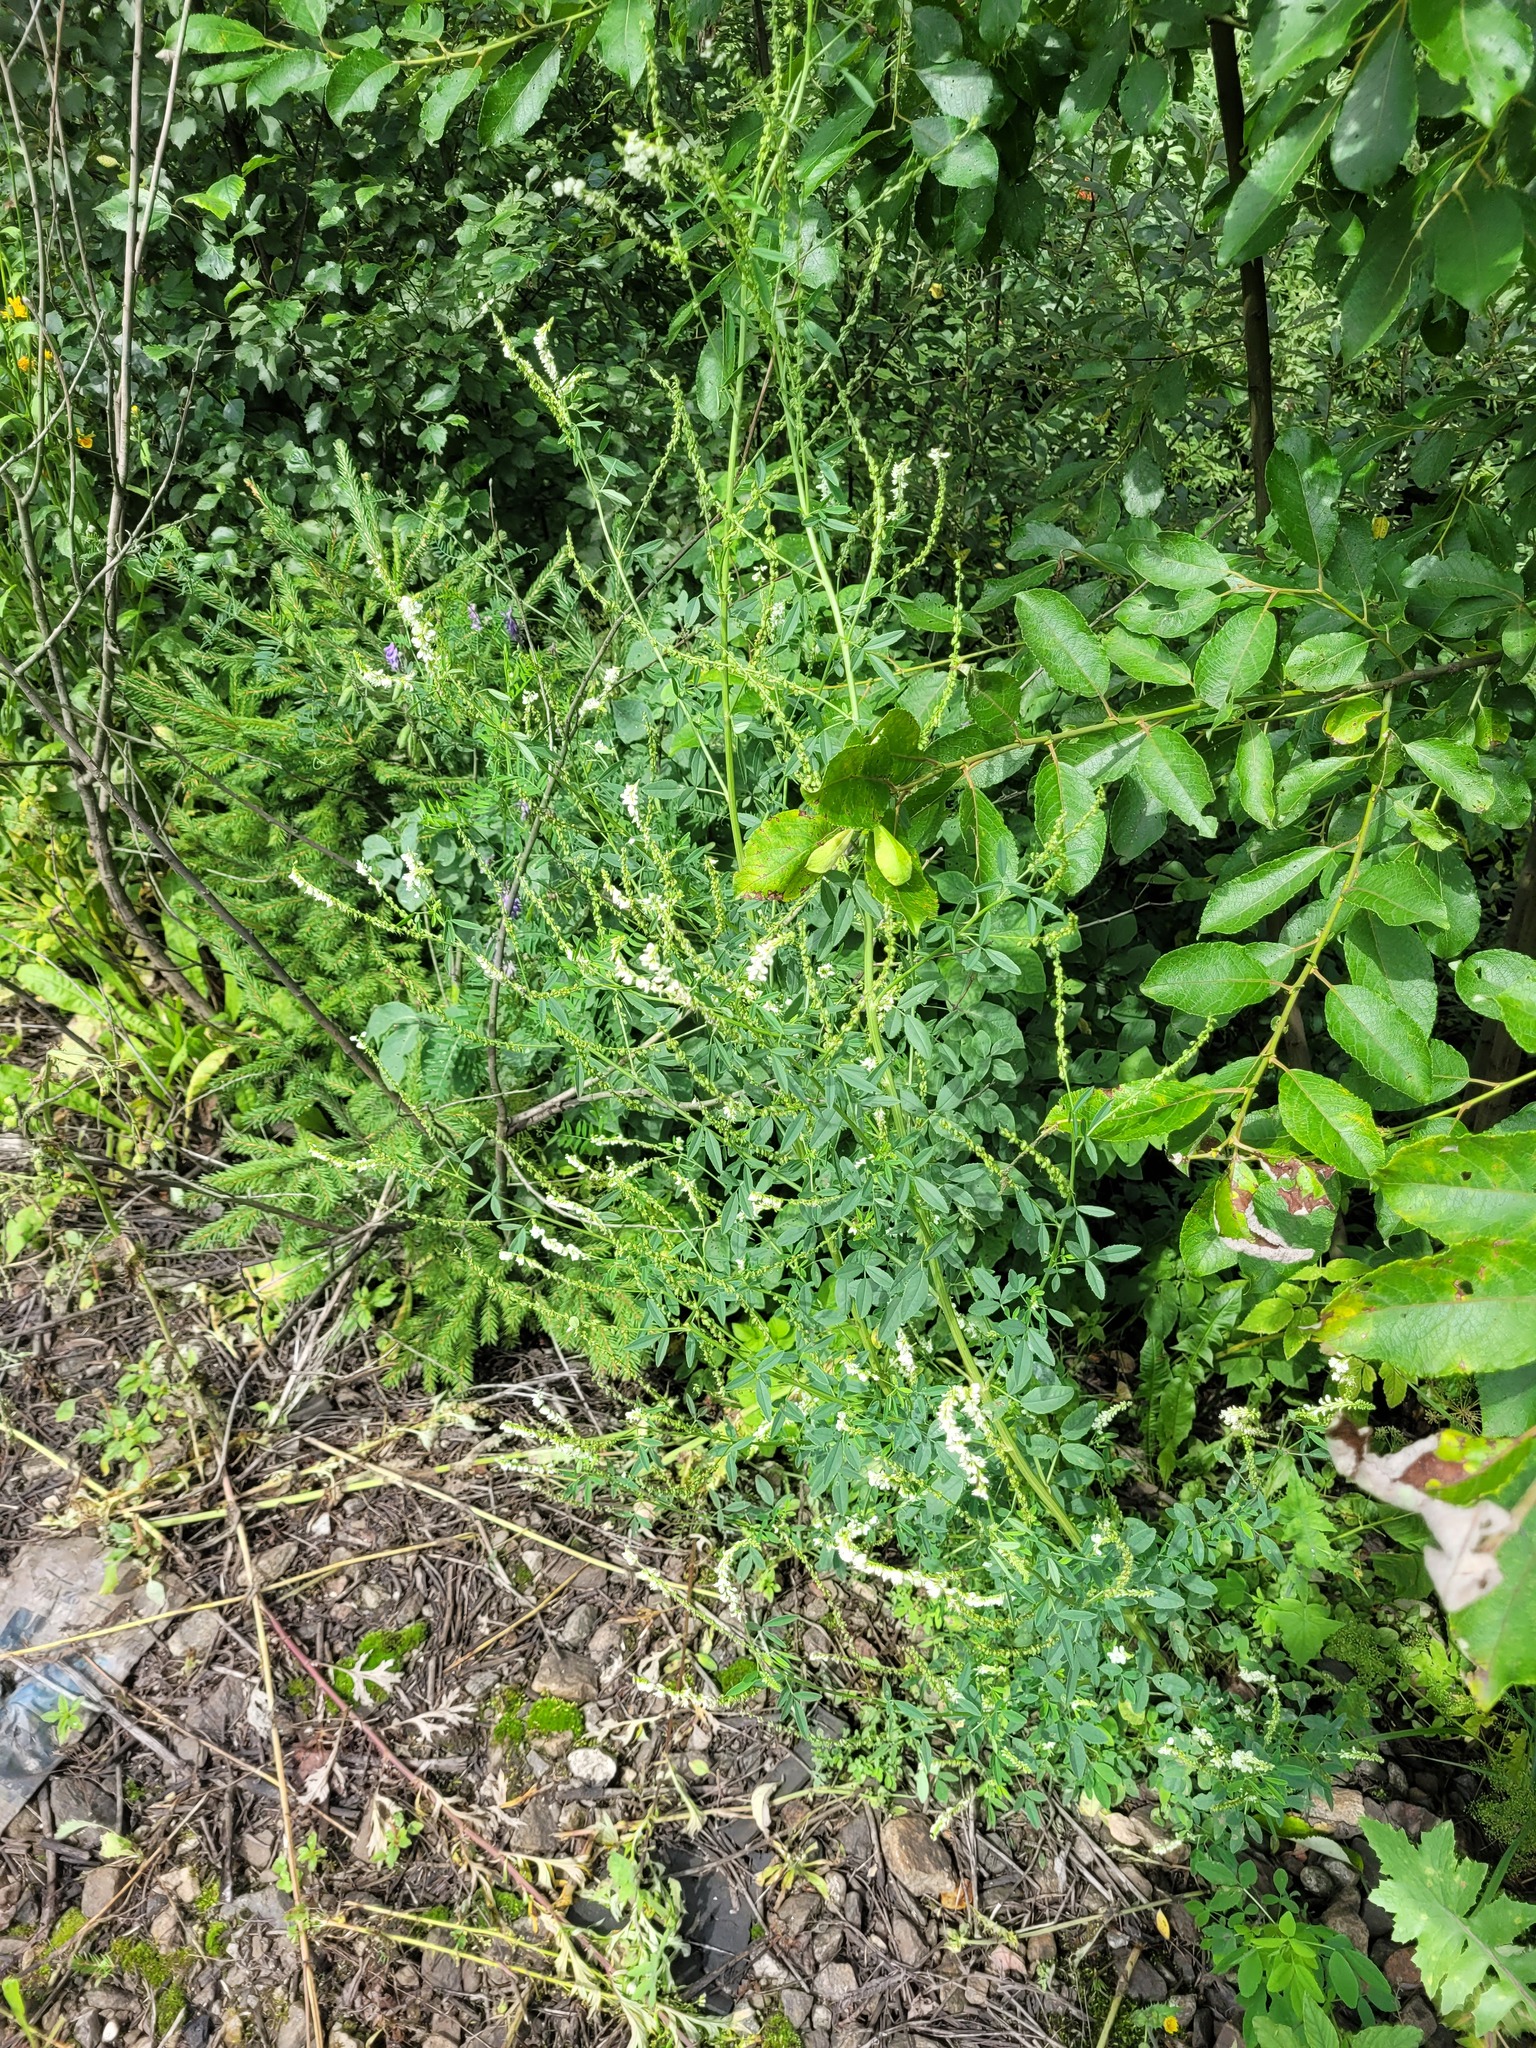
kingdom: Plantae
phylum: Tracheophyta
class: Magnoliopsida
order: Fabales
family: Fabaceae
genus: Melilotus
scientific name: Melilotus albus
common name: White melilot
